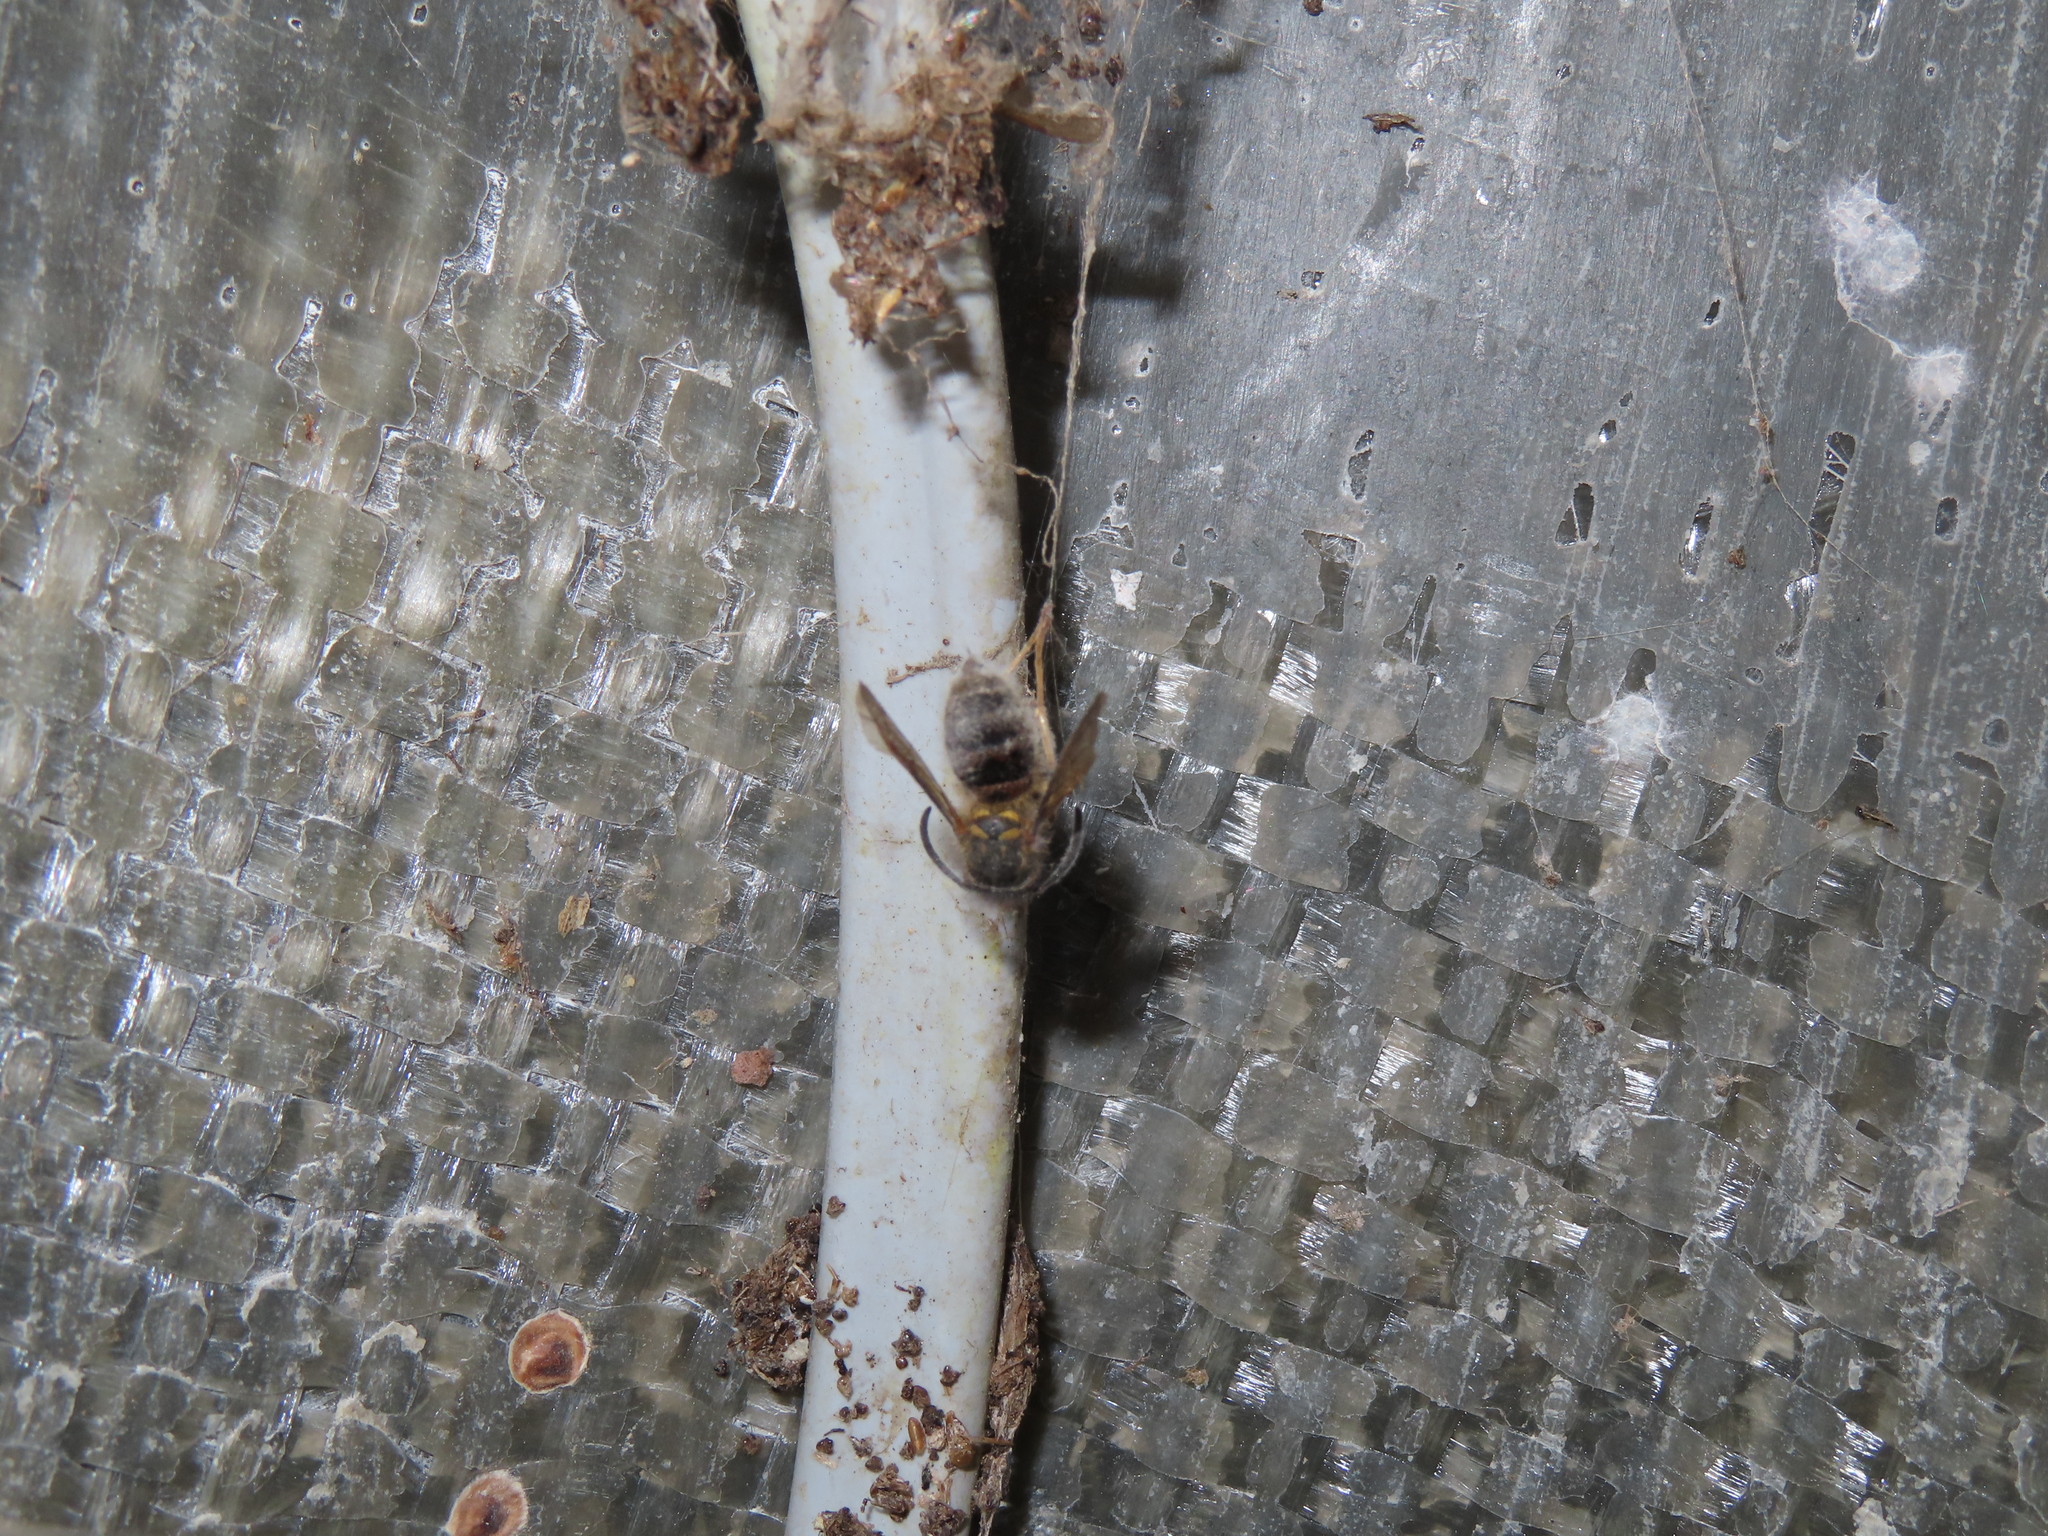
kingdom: Animalia
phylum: Arthropoda
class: Insecta
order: Hymenoptera
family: Vespidae
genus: Vespula
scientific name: Vespula
